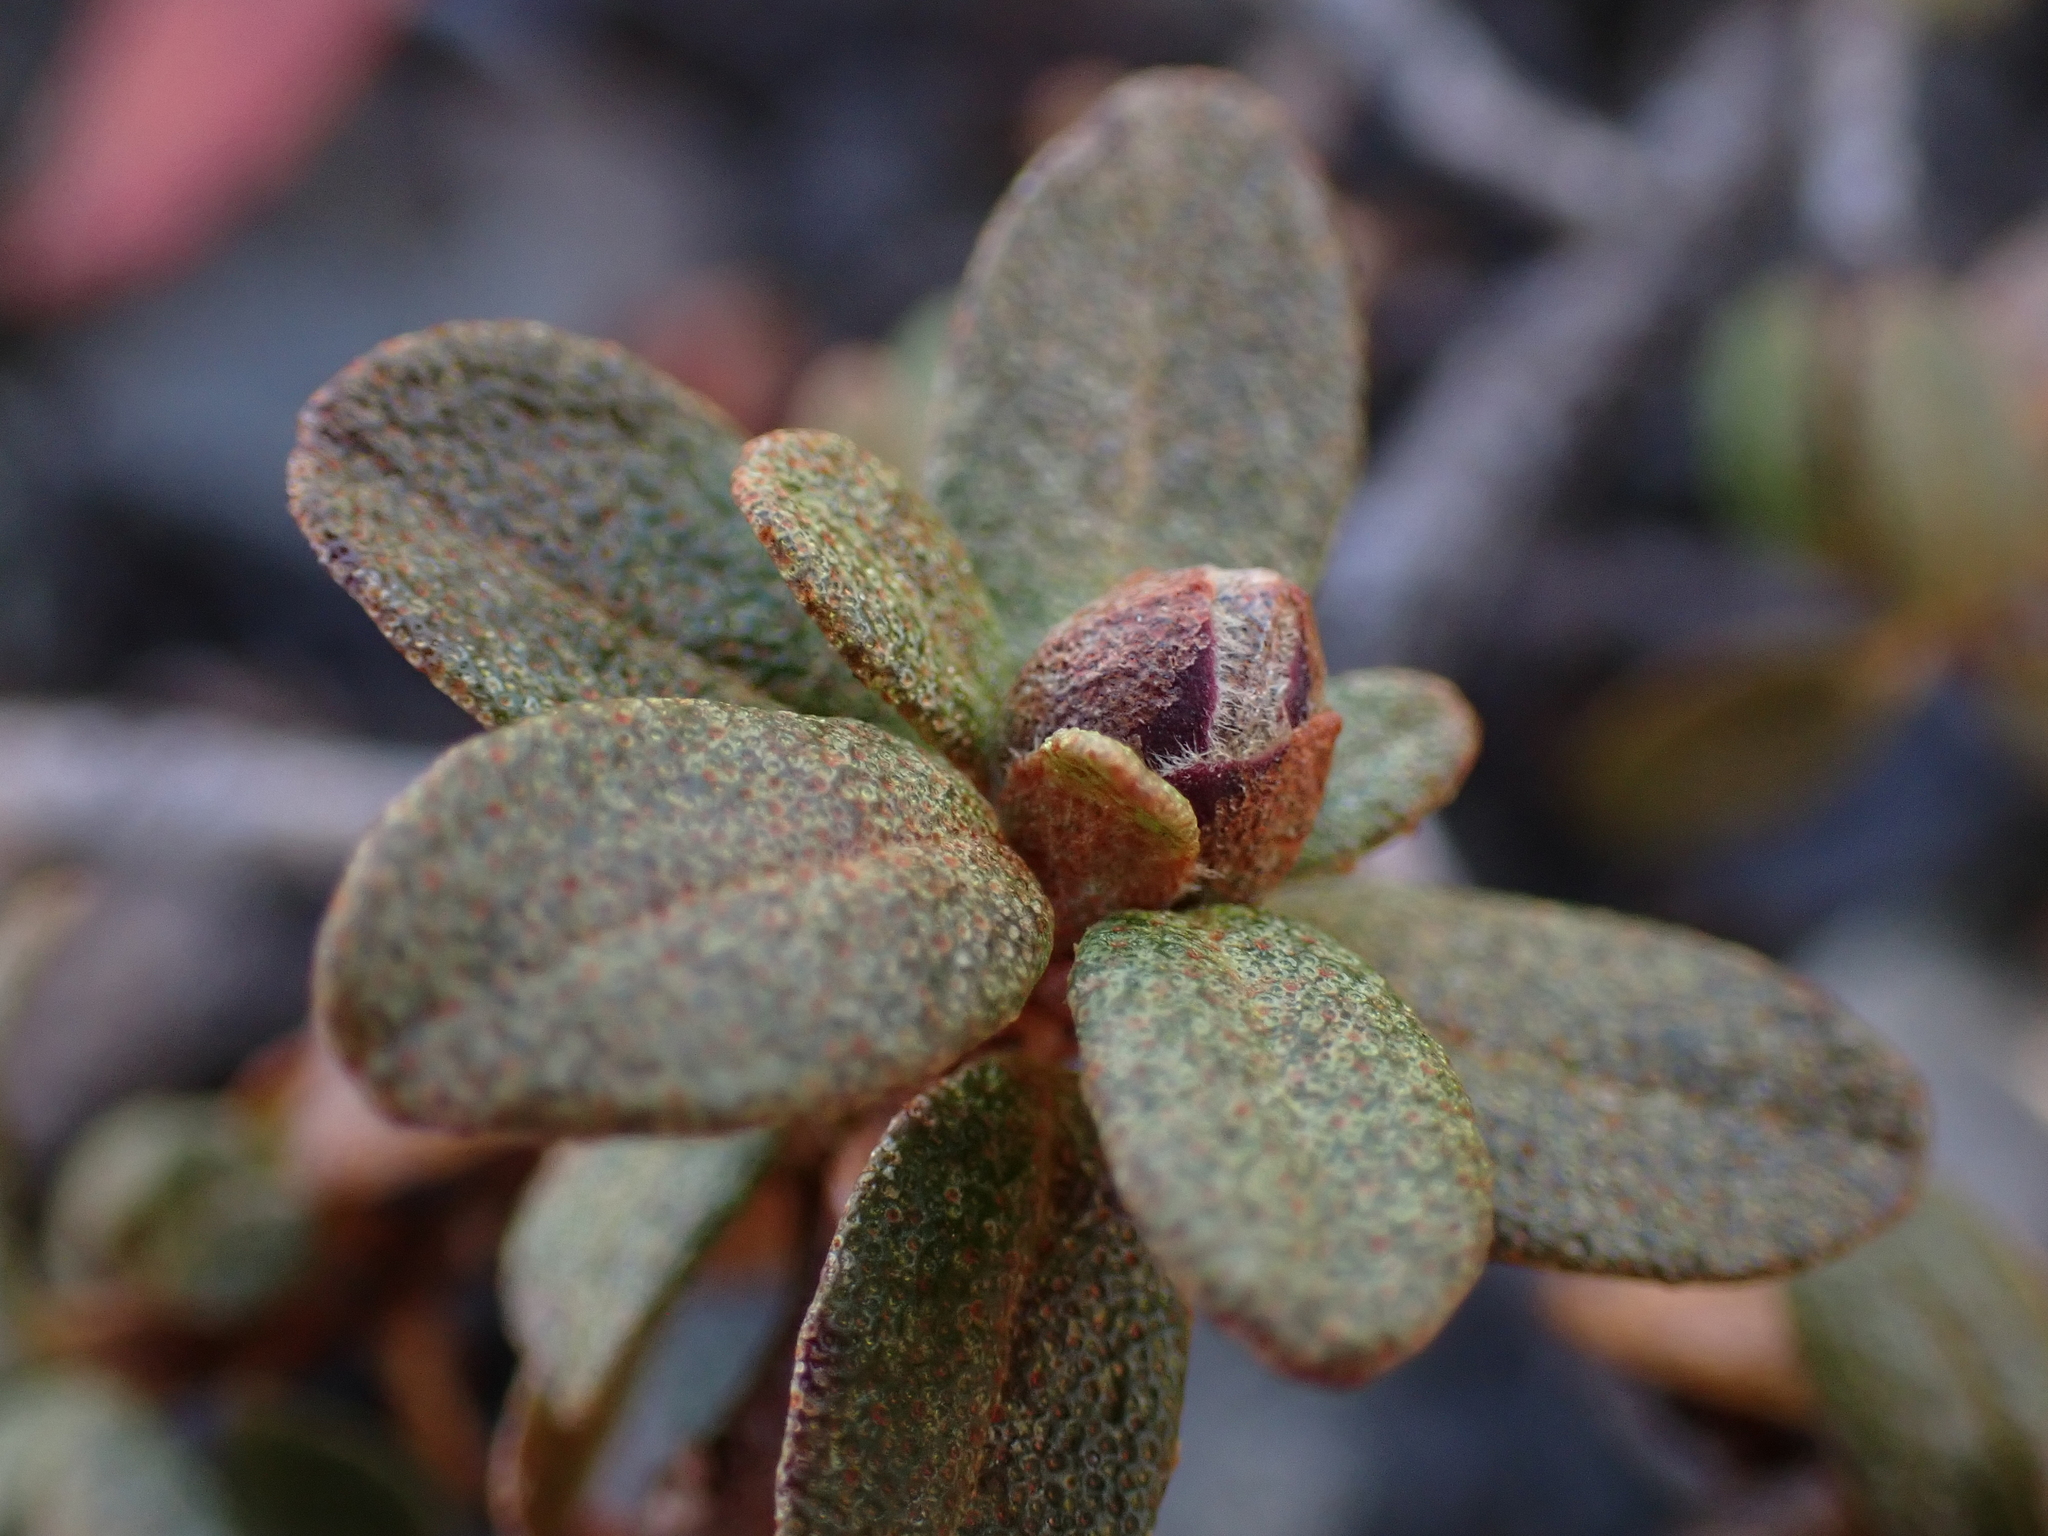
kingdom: Plantae
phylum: Tracheophyta
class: Magnoliopsida
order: Ericales
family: Ericaceae
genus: Rhododendron
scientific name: Rhododendron lapponicum
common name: Lapland rhododendron
